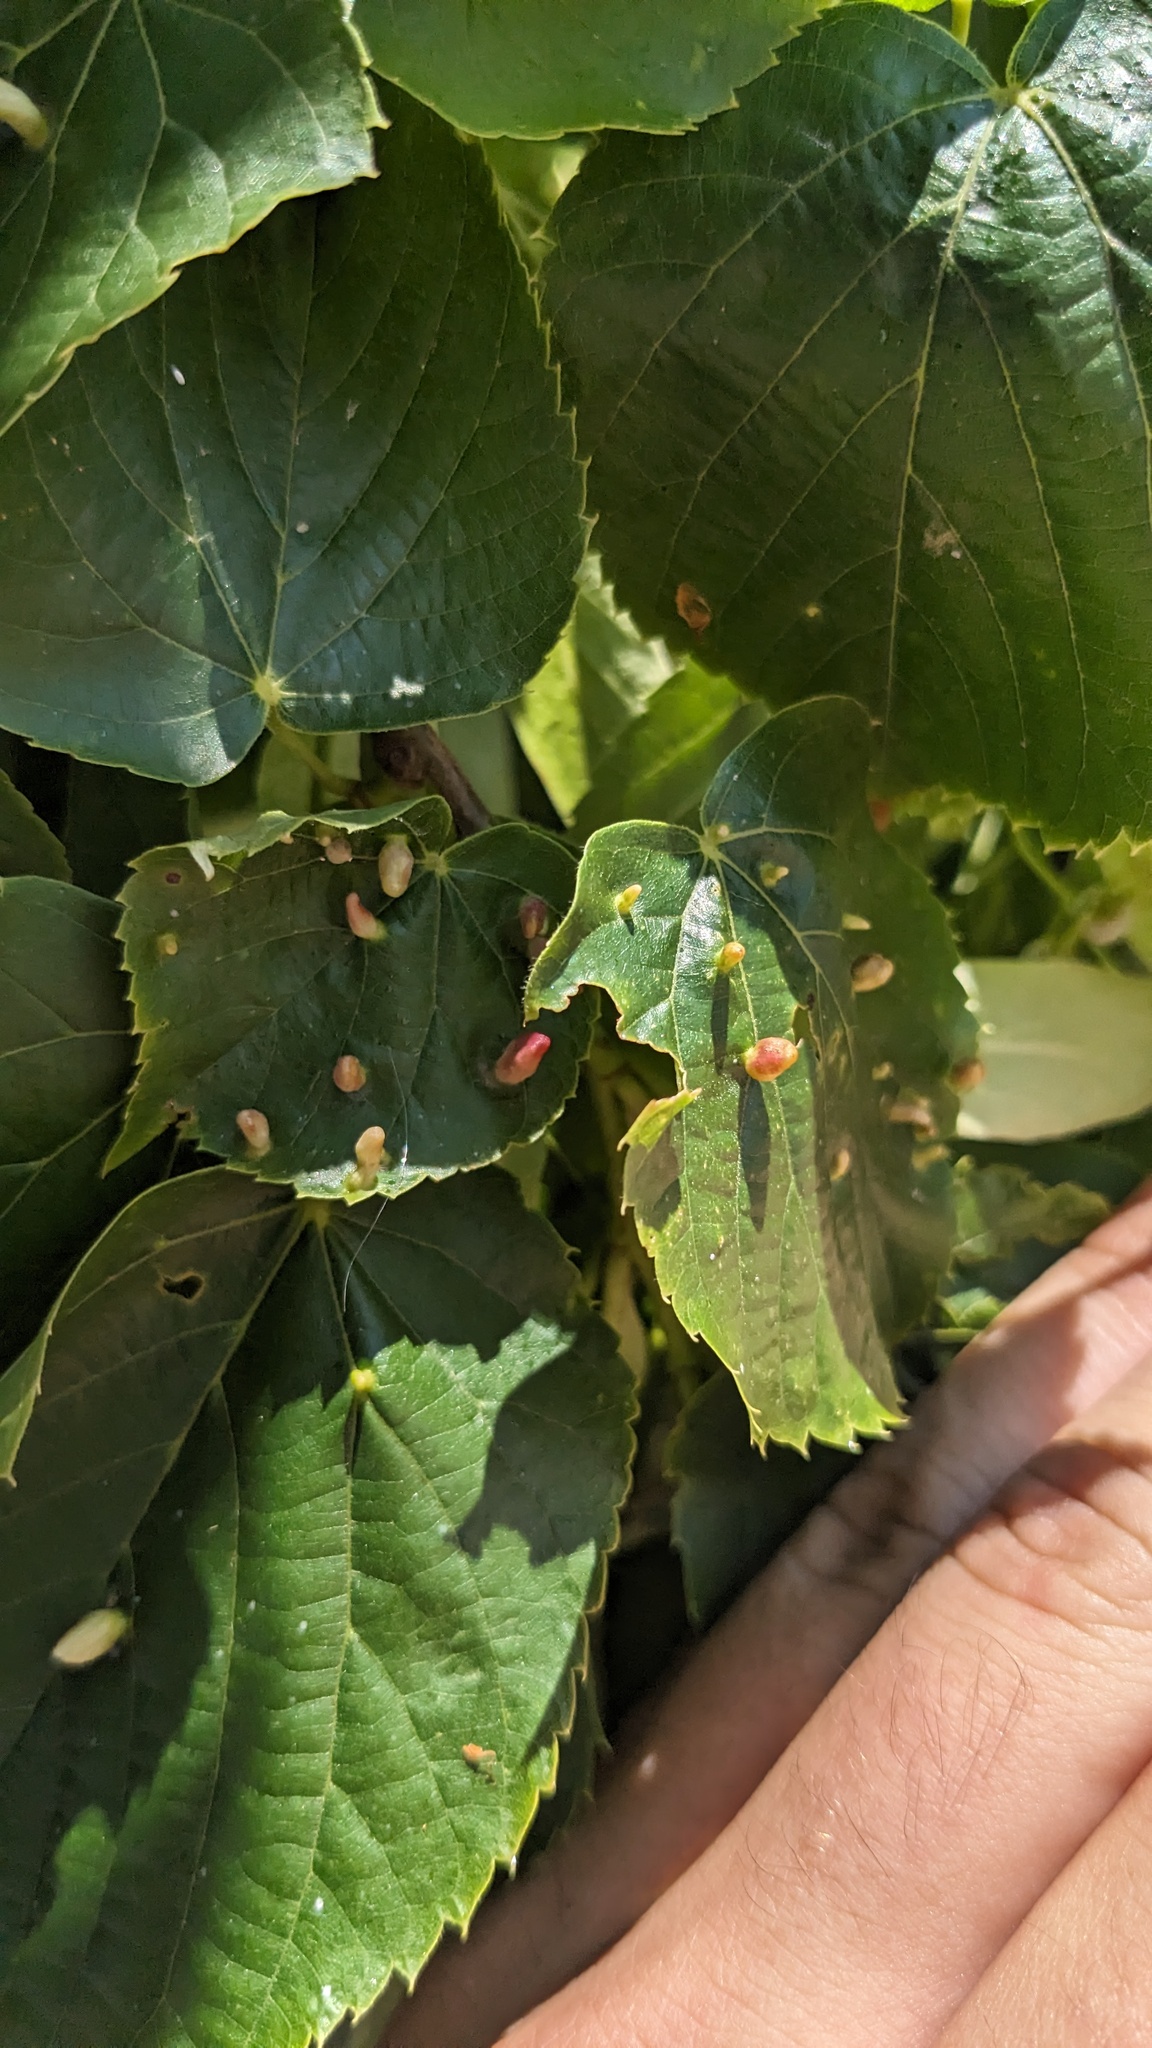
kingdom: Animalia
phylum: Arthropoda
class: Arachnida
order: Trombidiformes
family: Eriophyidae
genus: Eriophyes
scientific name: Eriophyes tiliae
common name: Red nail gall mite
